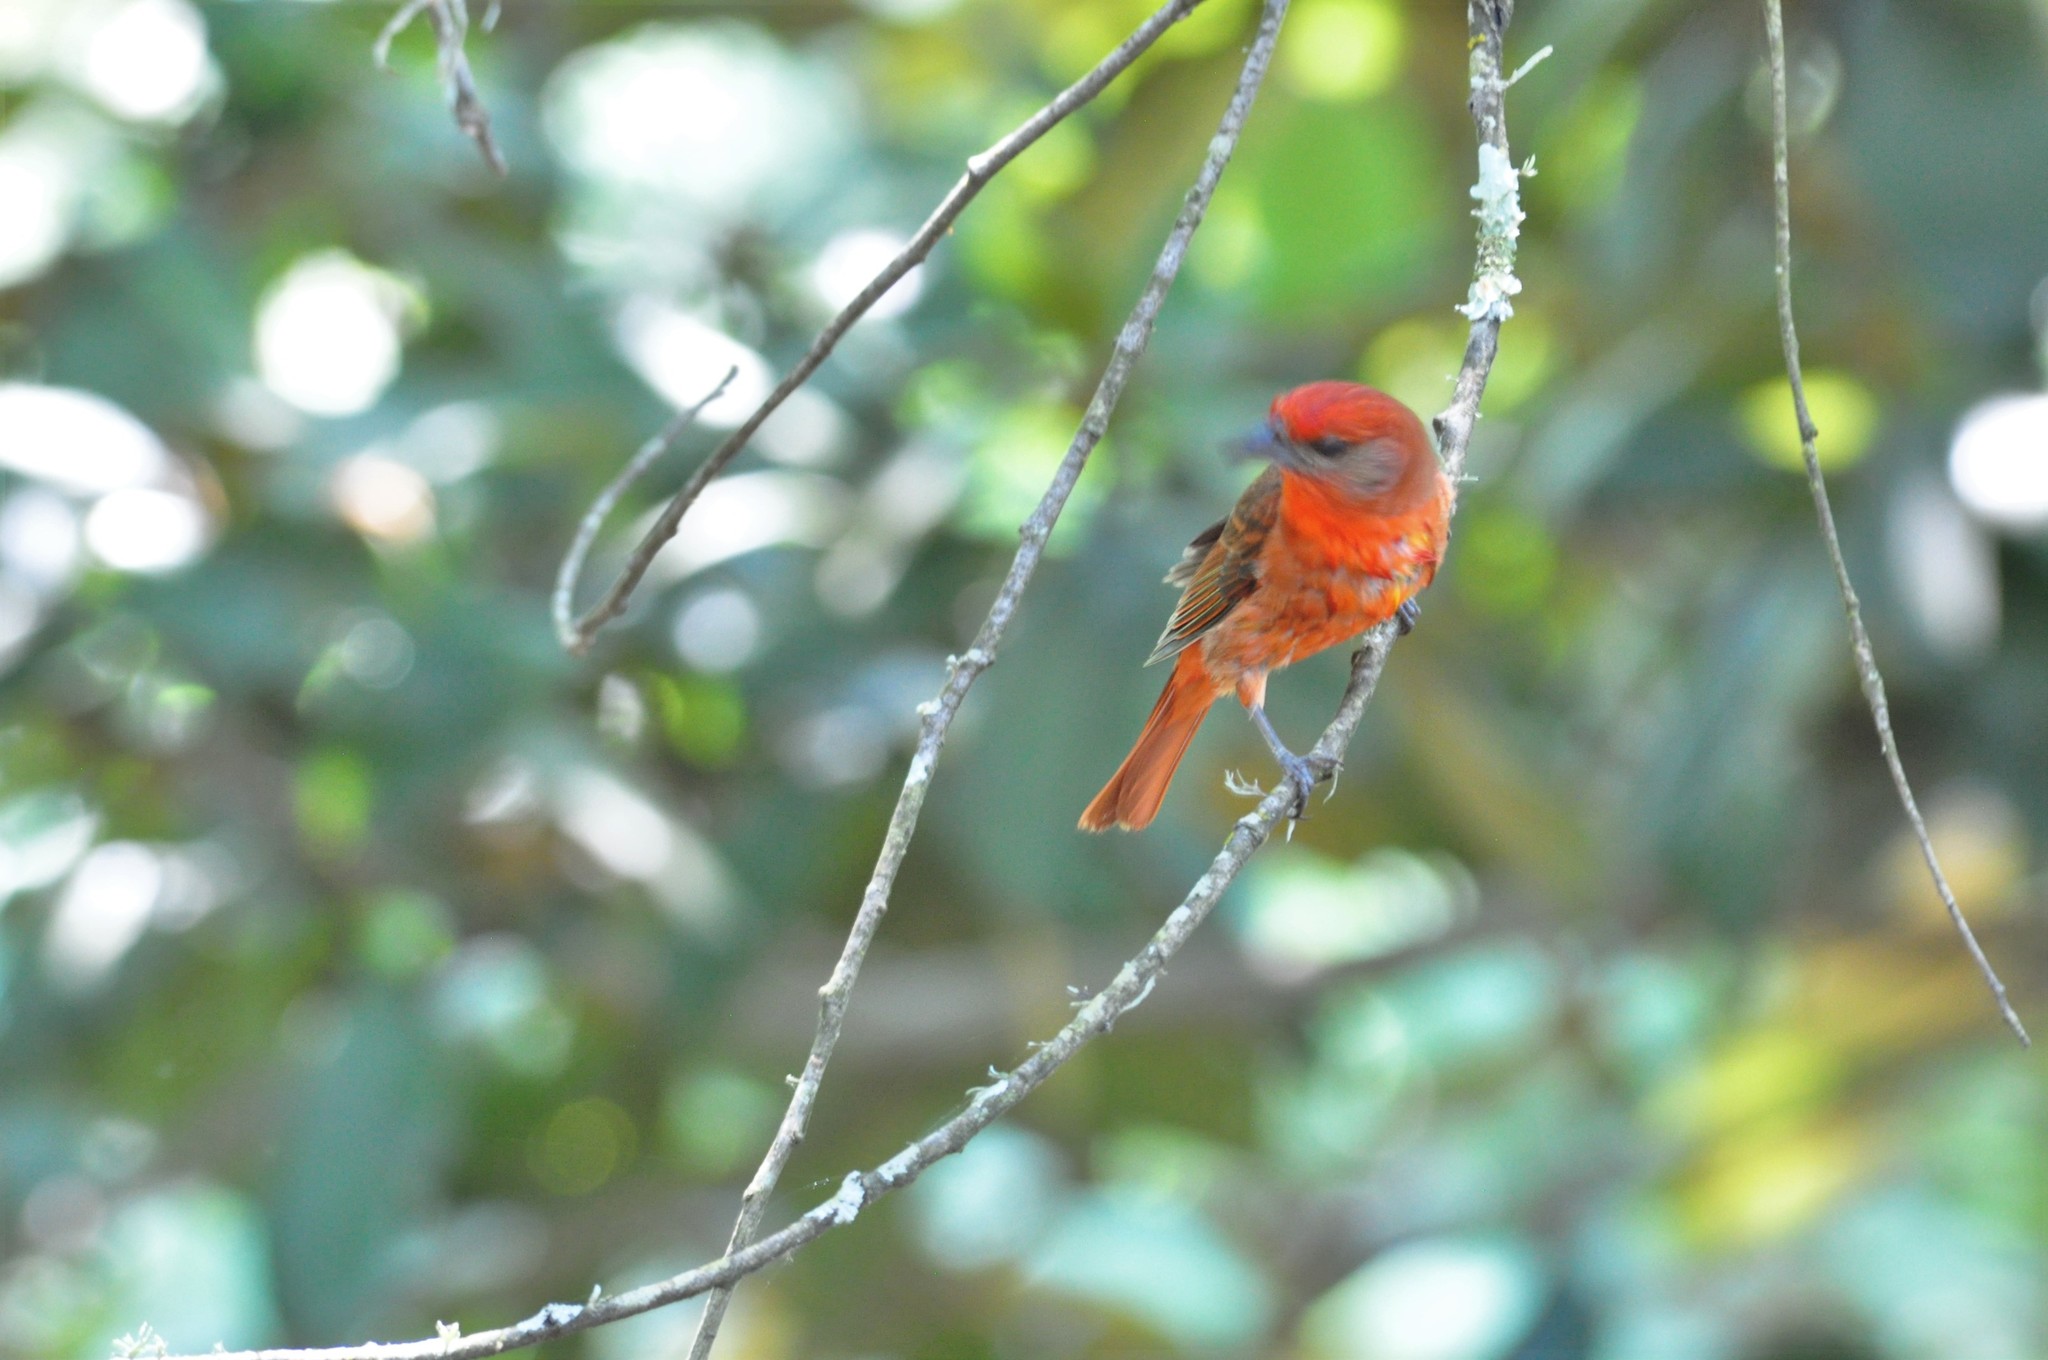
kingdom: Animalia
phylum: Chordata
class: Aves
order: Passeriformes
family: Cardinalidae
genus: Piranga
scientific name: Piranga flava
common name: Red tanager
